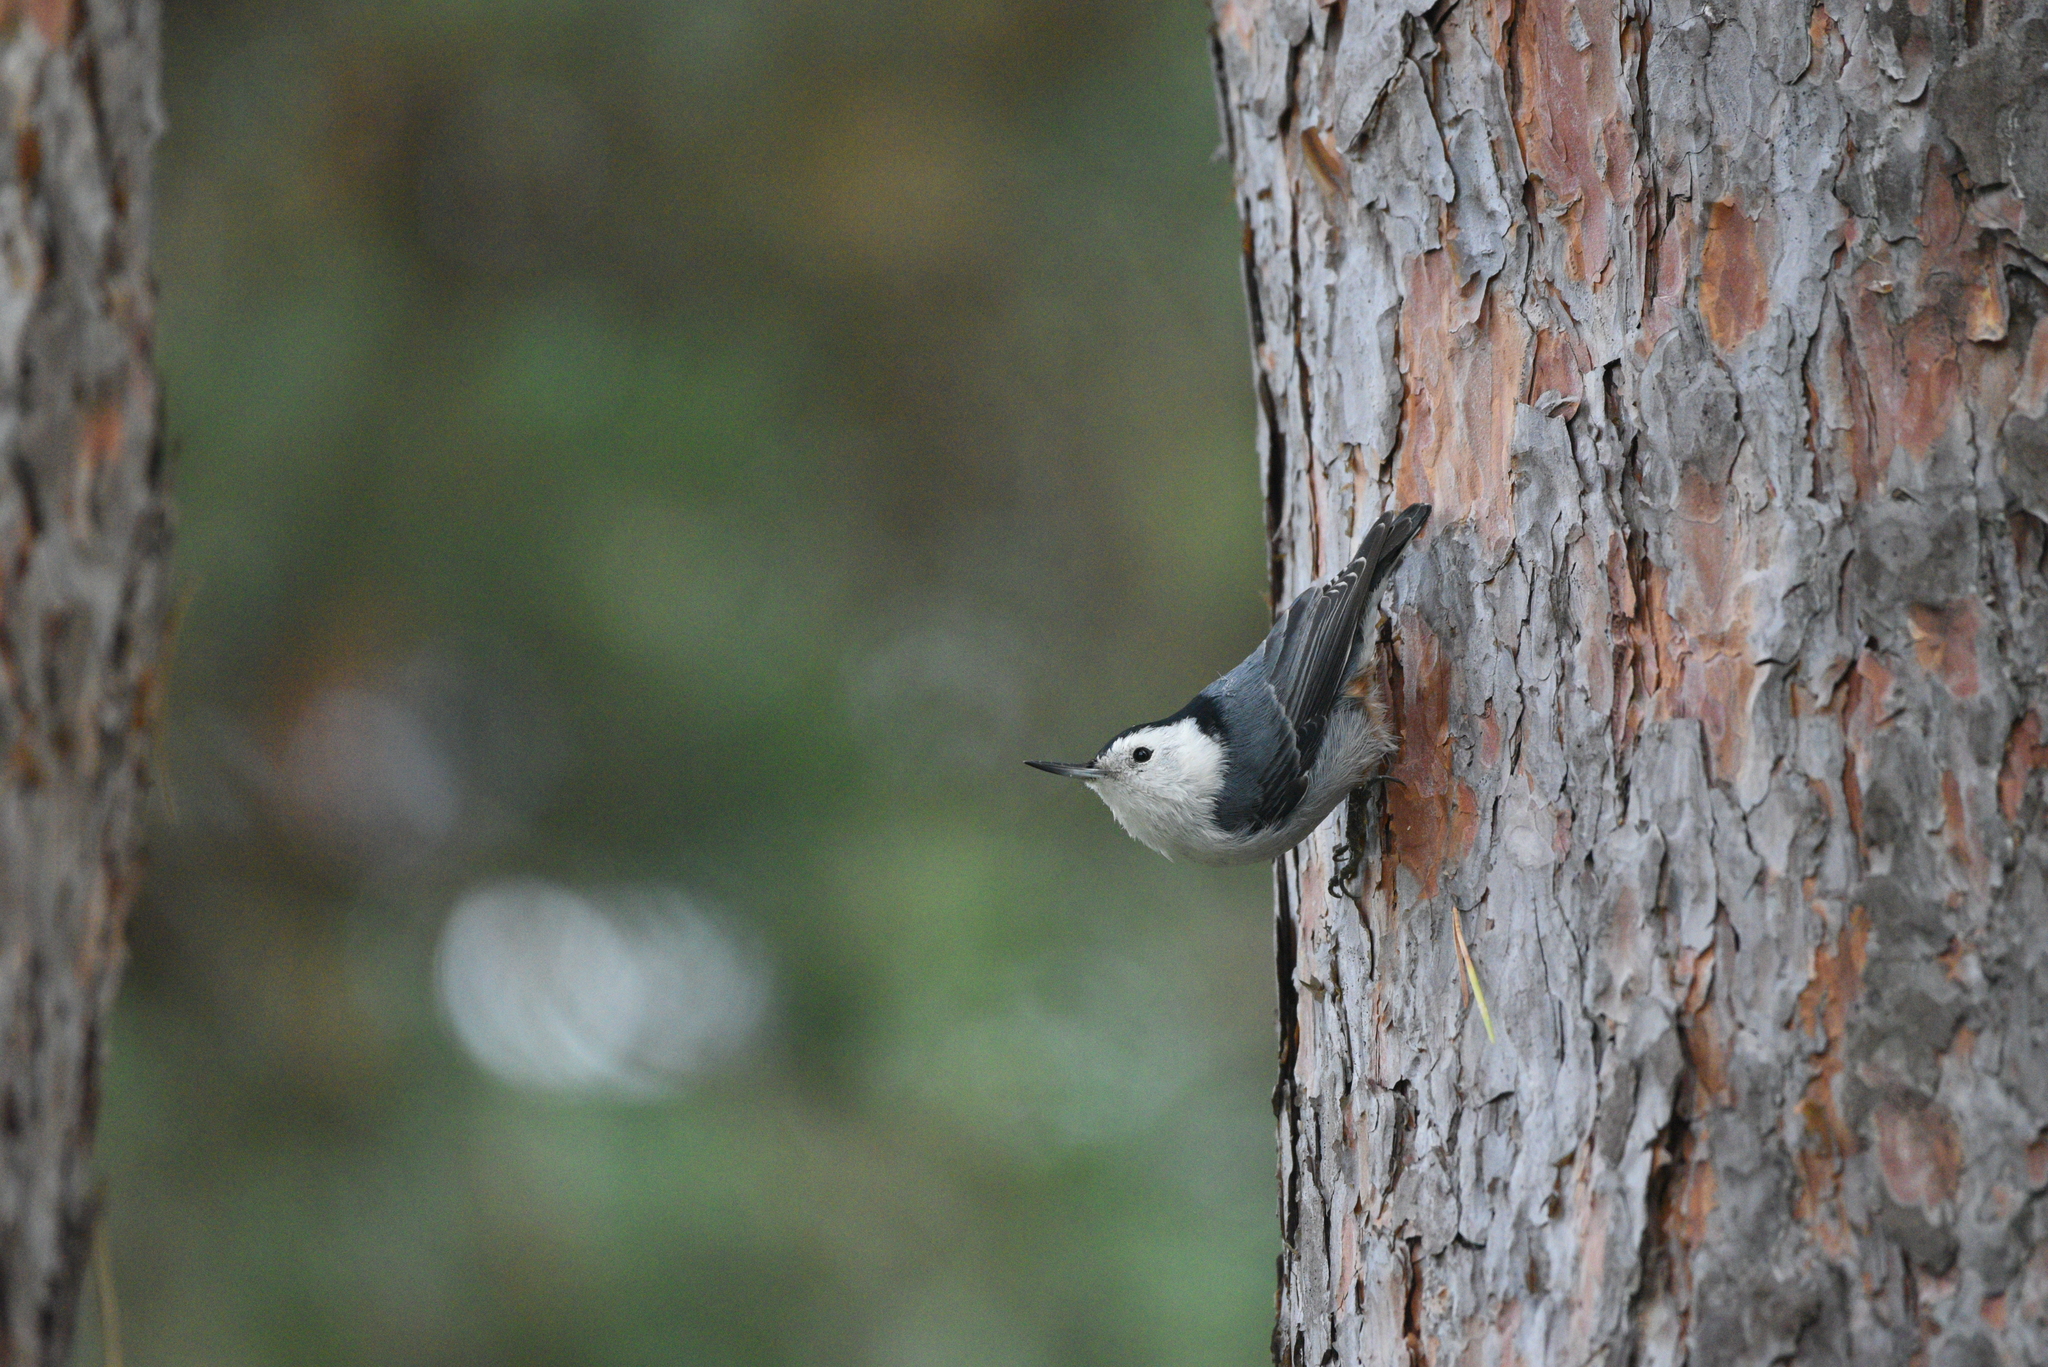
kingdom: Animalia
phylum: Chordata
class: Aves
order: Passeriformes
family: Sittidae
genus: Sitta
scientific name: Sitta carolinensis
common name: White-breasted nuthatch
